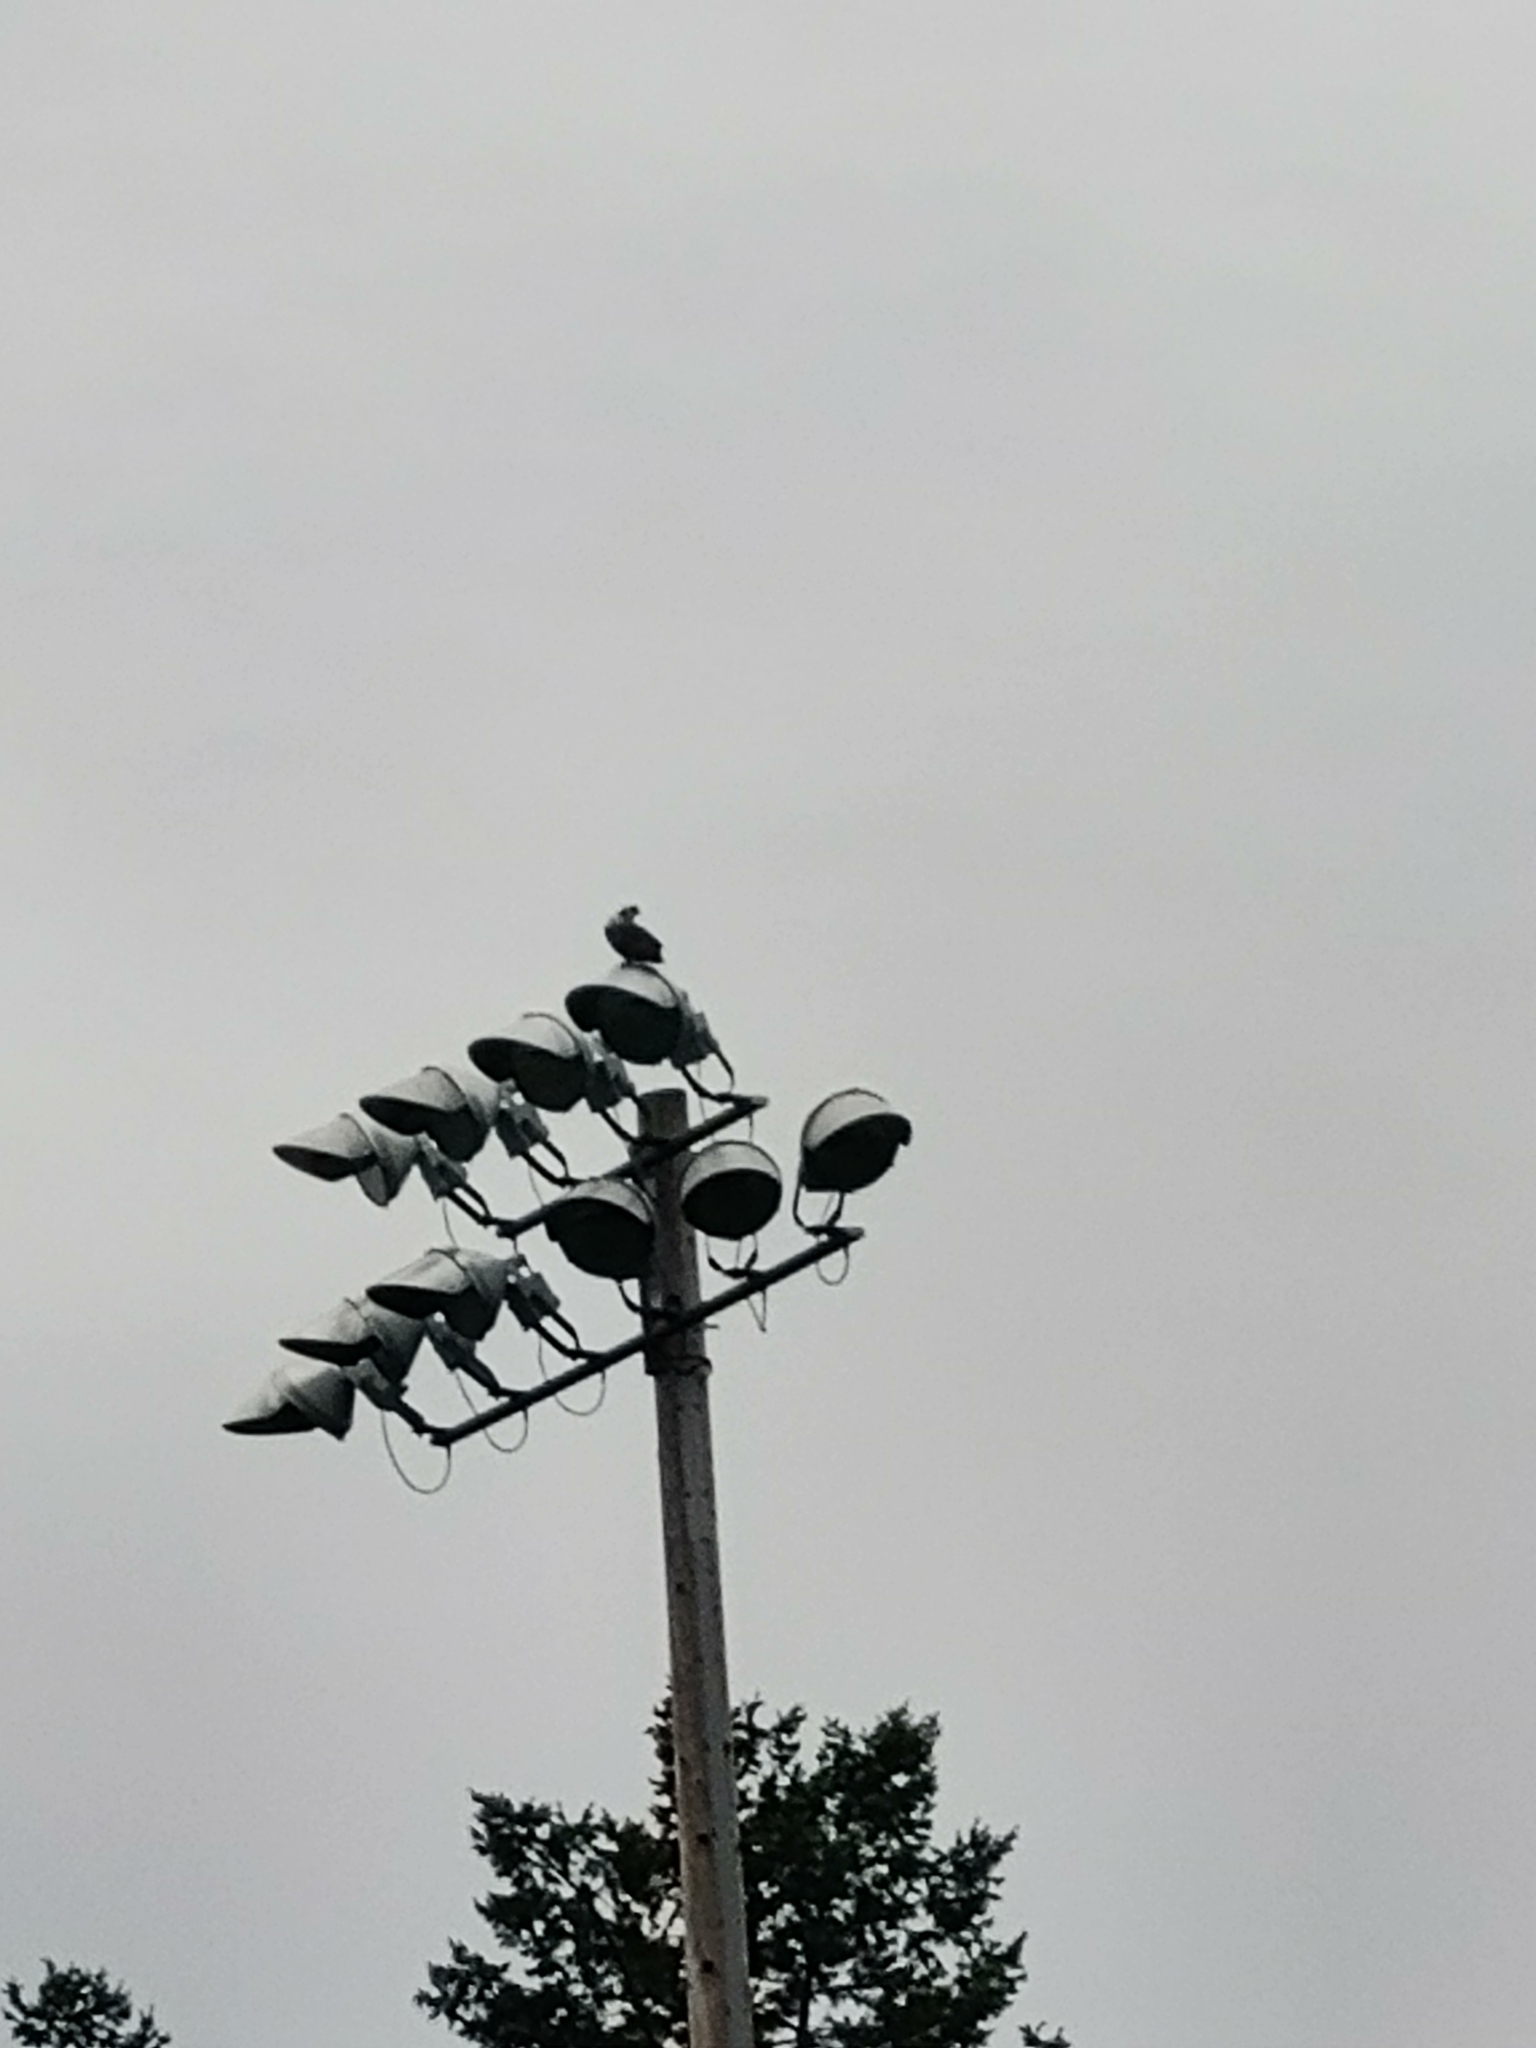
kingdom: Animalia
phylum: Chordata
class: Aves
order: Accipitriformes
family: Pandionidae
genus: Pandion
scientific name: Pandion haliaetus
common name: Osprey
